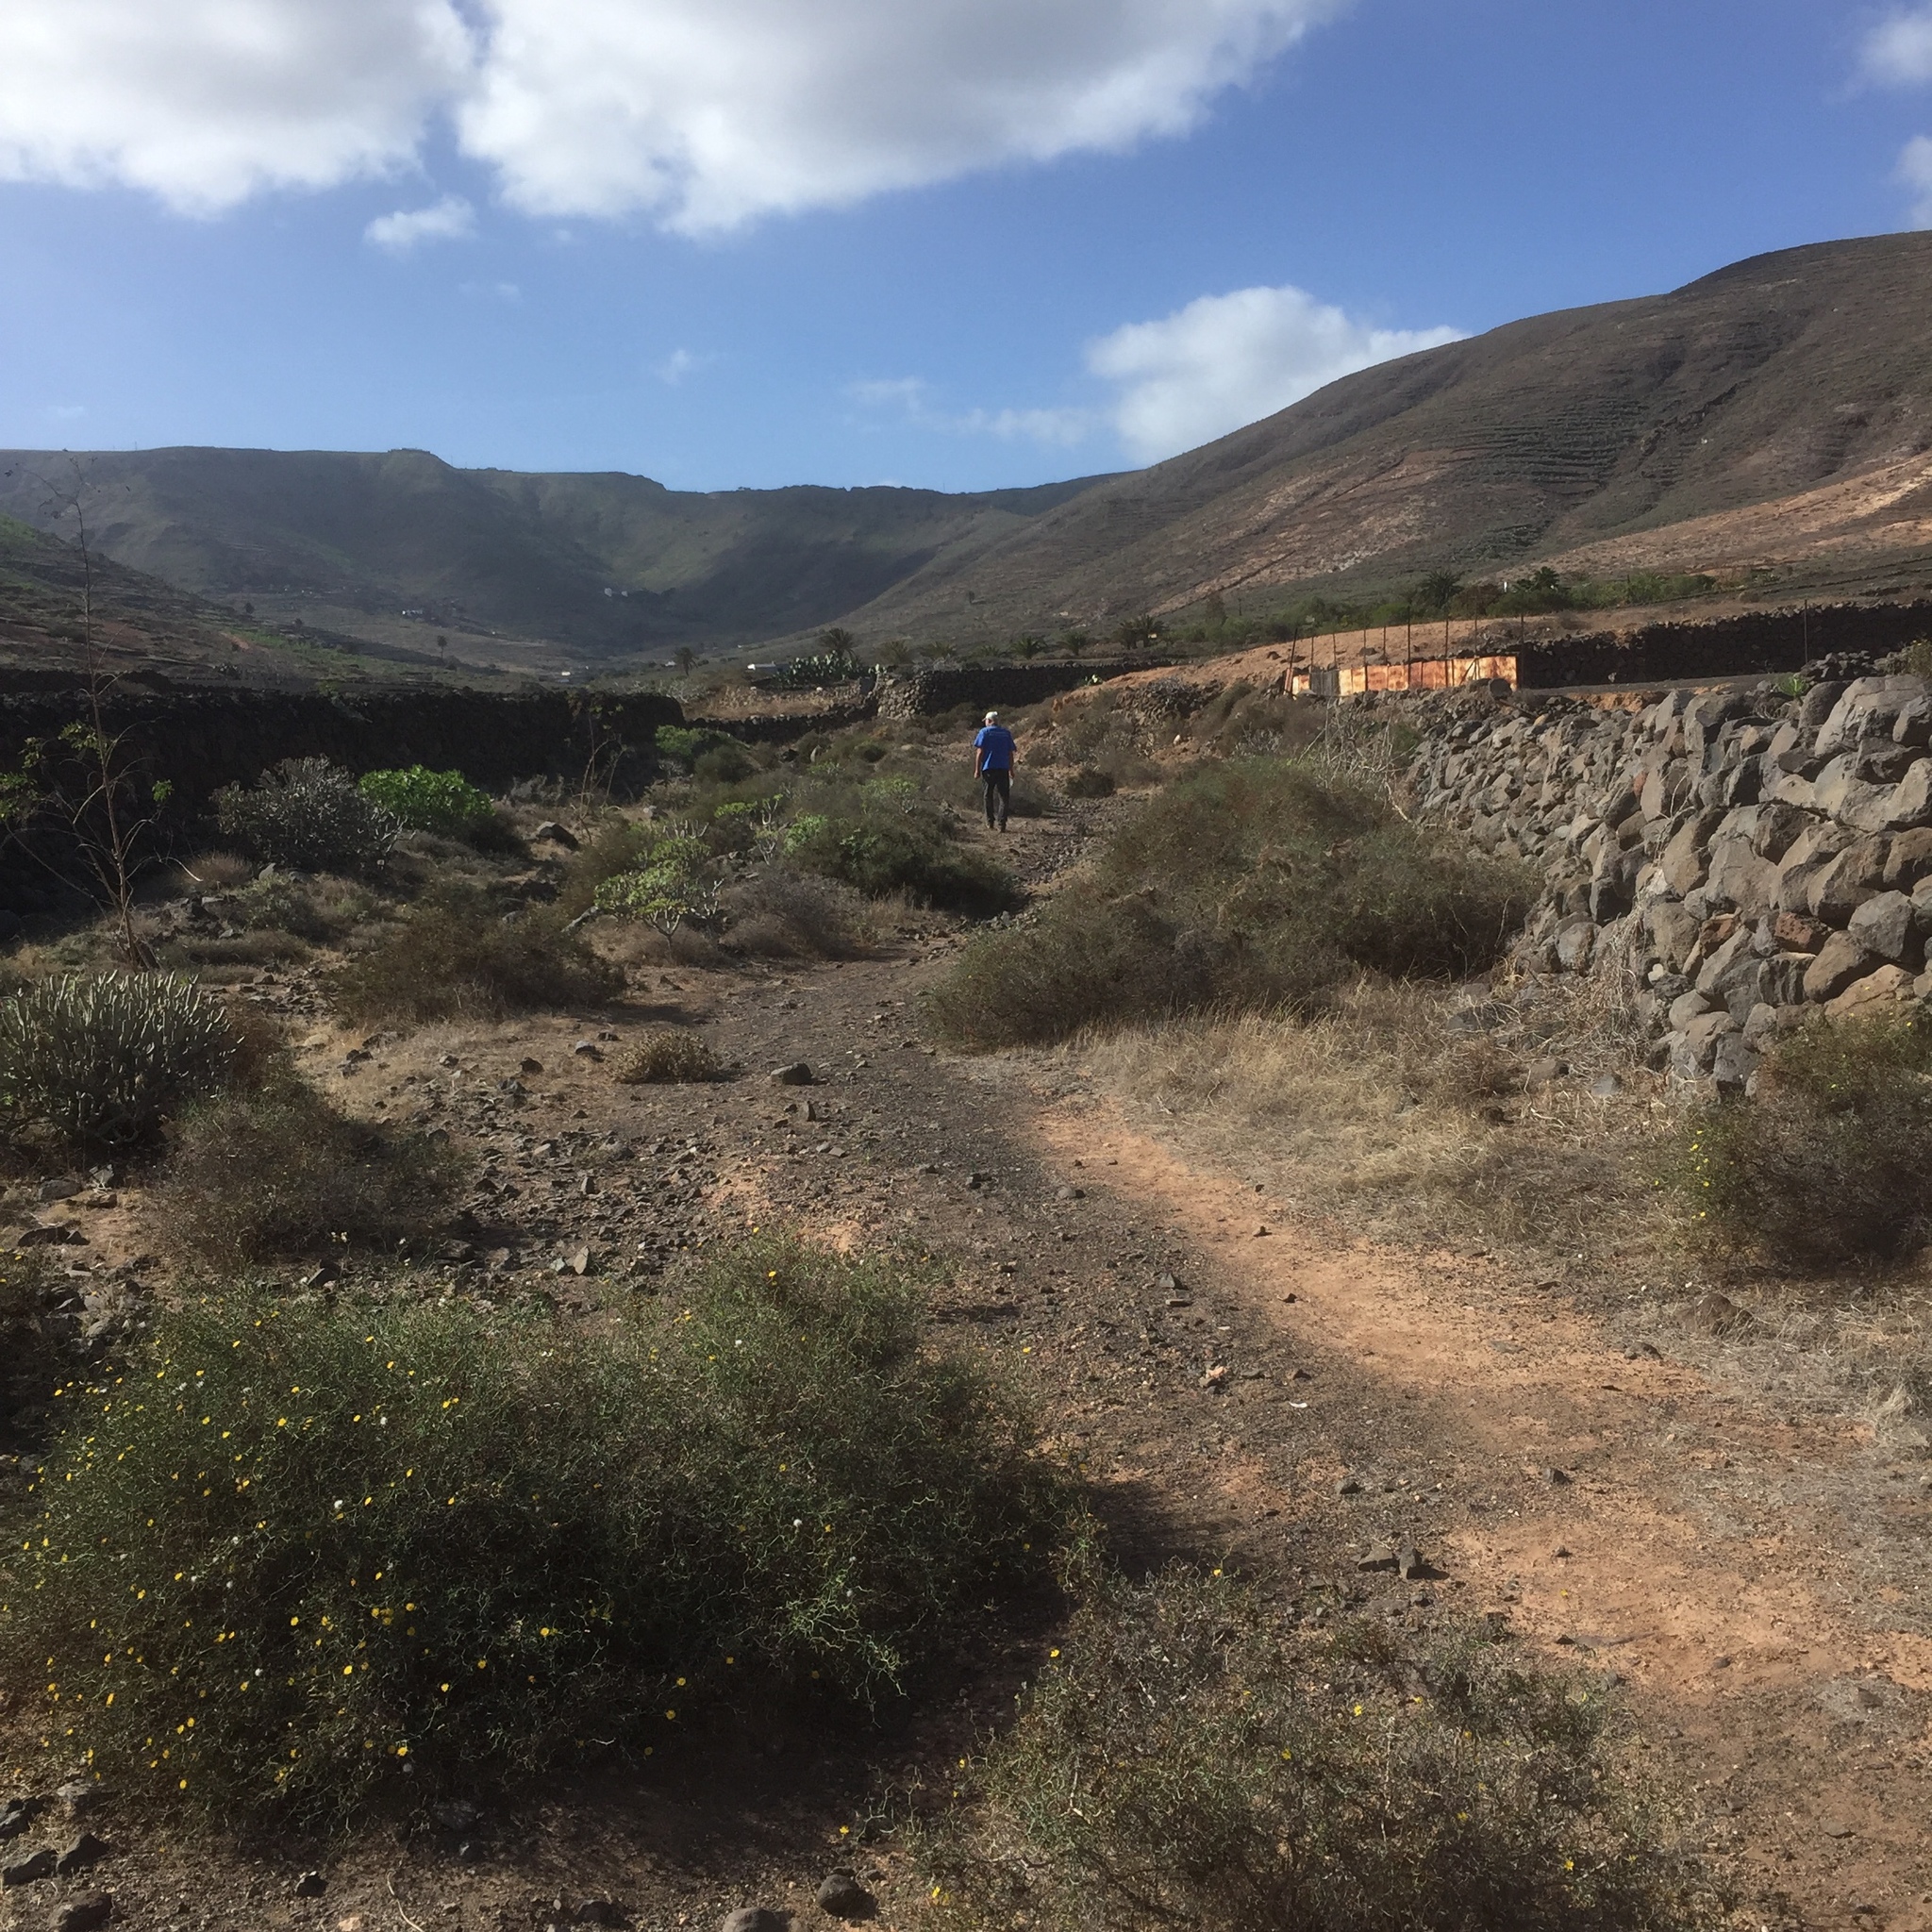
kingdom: Plantae
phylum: Tracheophyta
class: Magnoliopsida
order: Asterales
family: Asteraceae
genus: Launaea
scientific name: Launaea arborescens
